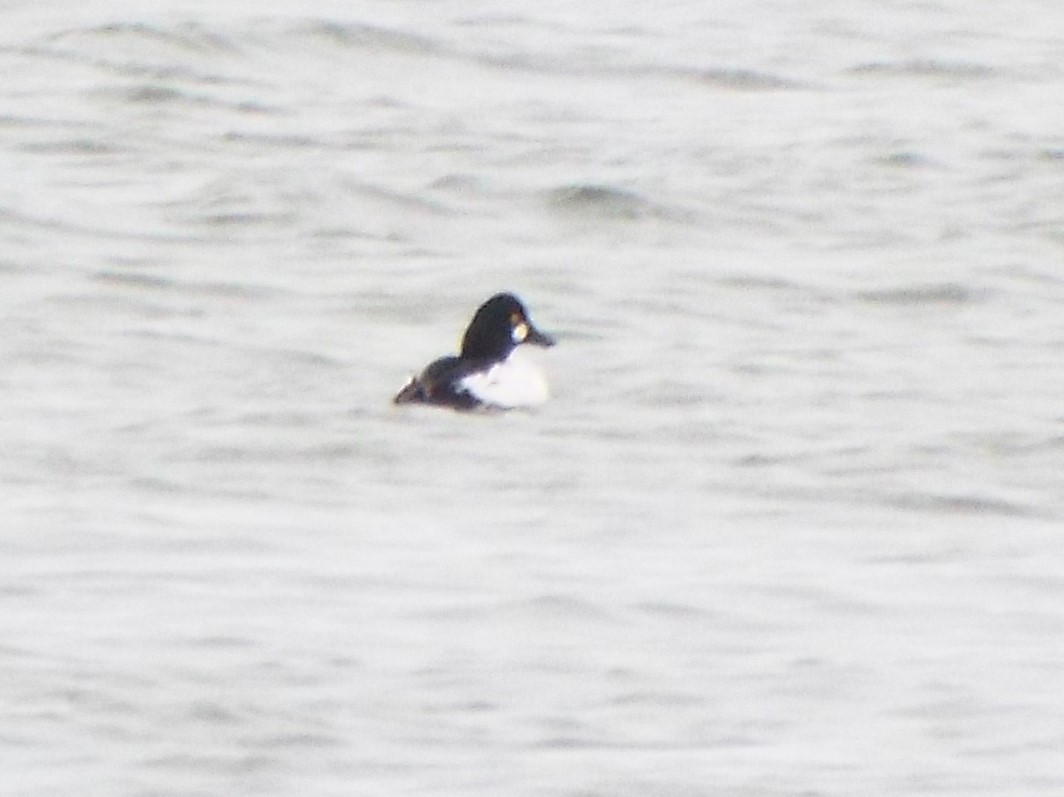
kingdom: Animalia
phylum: Chordata
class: Aves
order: Anseriformes
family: Anatidae
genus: Bucephala
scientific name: Bucephala clangula
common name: Common goldeneye
